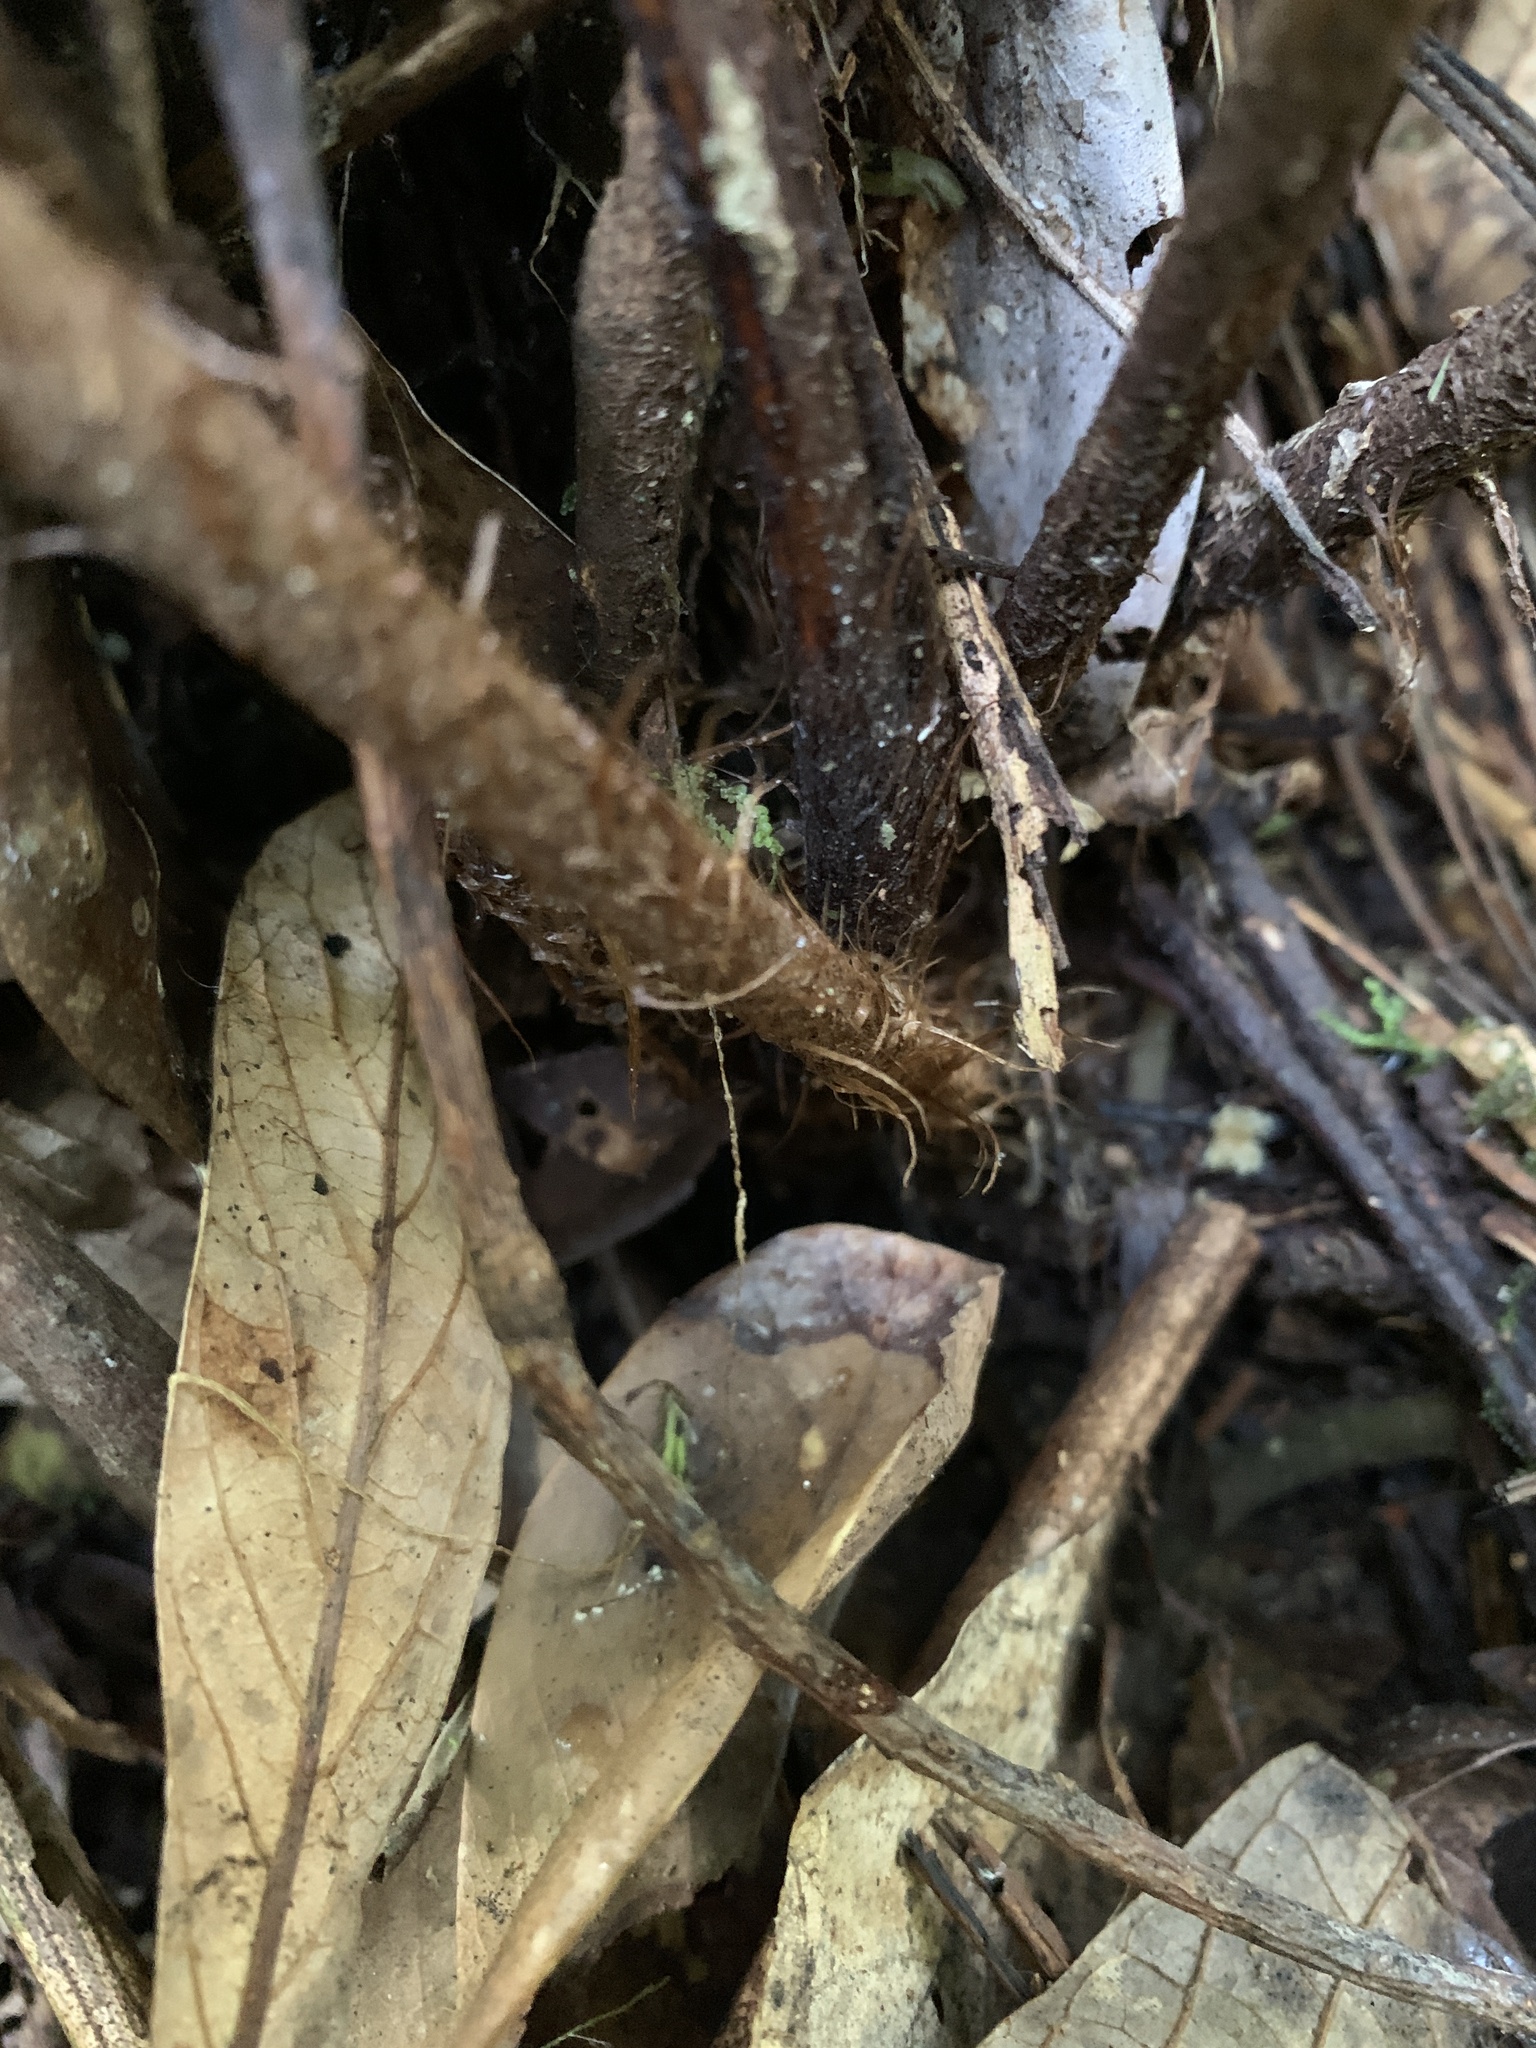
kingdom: Plantae
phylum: Tracheophyta
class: Polypodiopsida
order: Polypodiales
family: Dryopteridaceae
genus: Ctenitis
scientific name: Ctenitis subglandulosa
